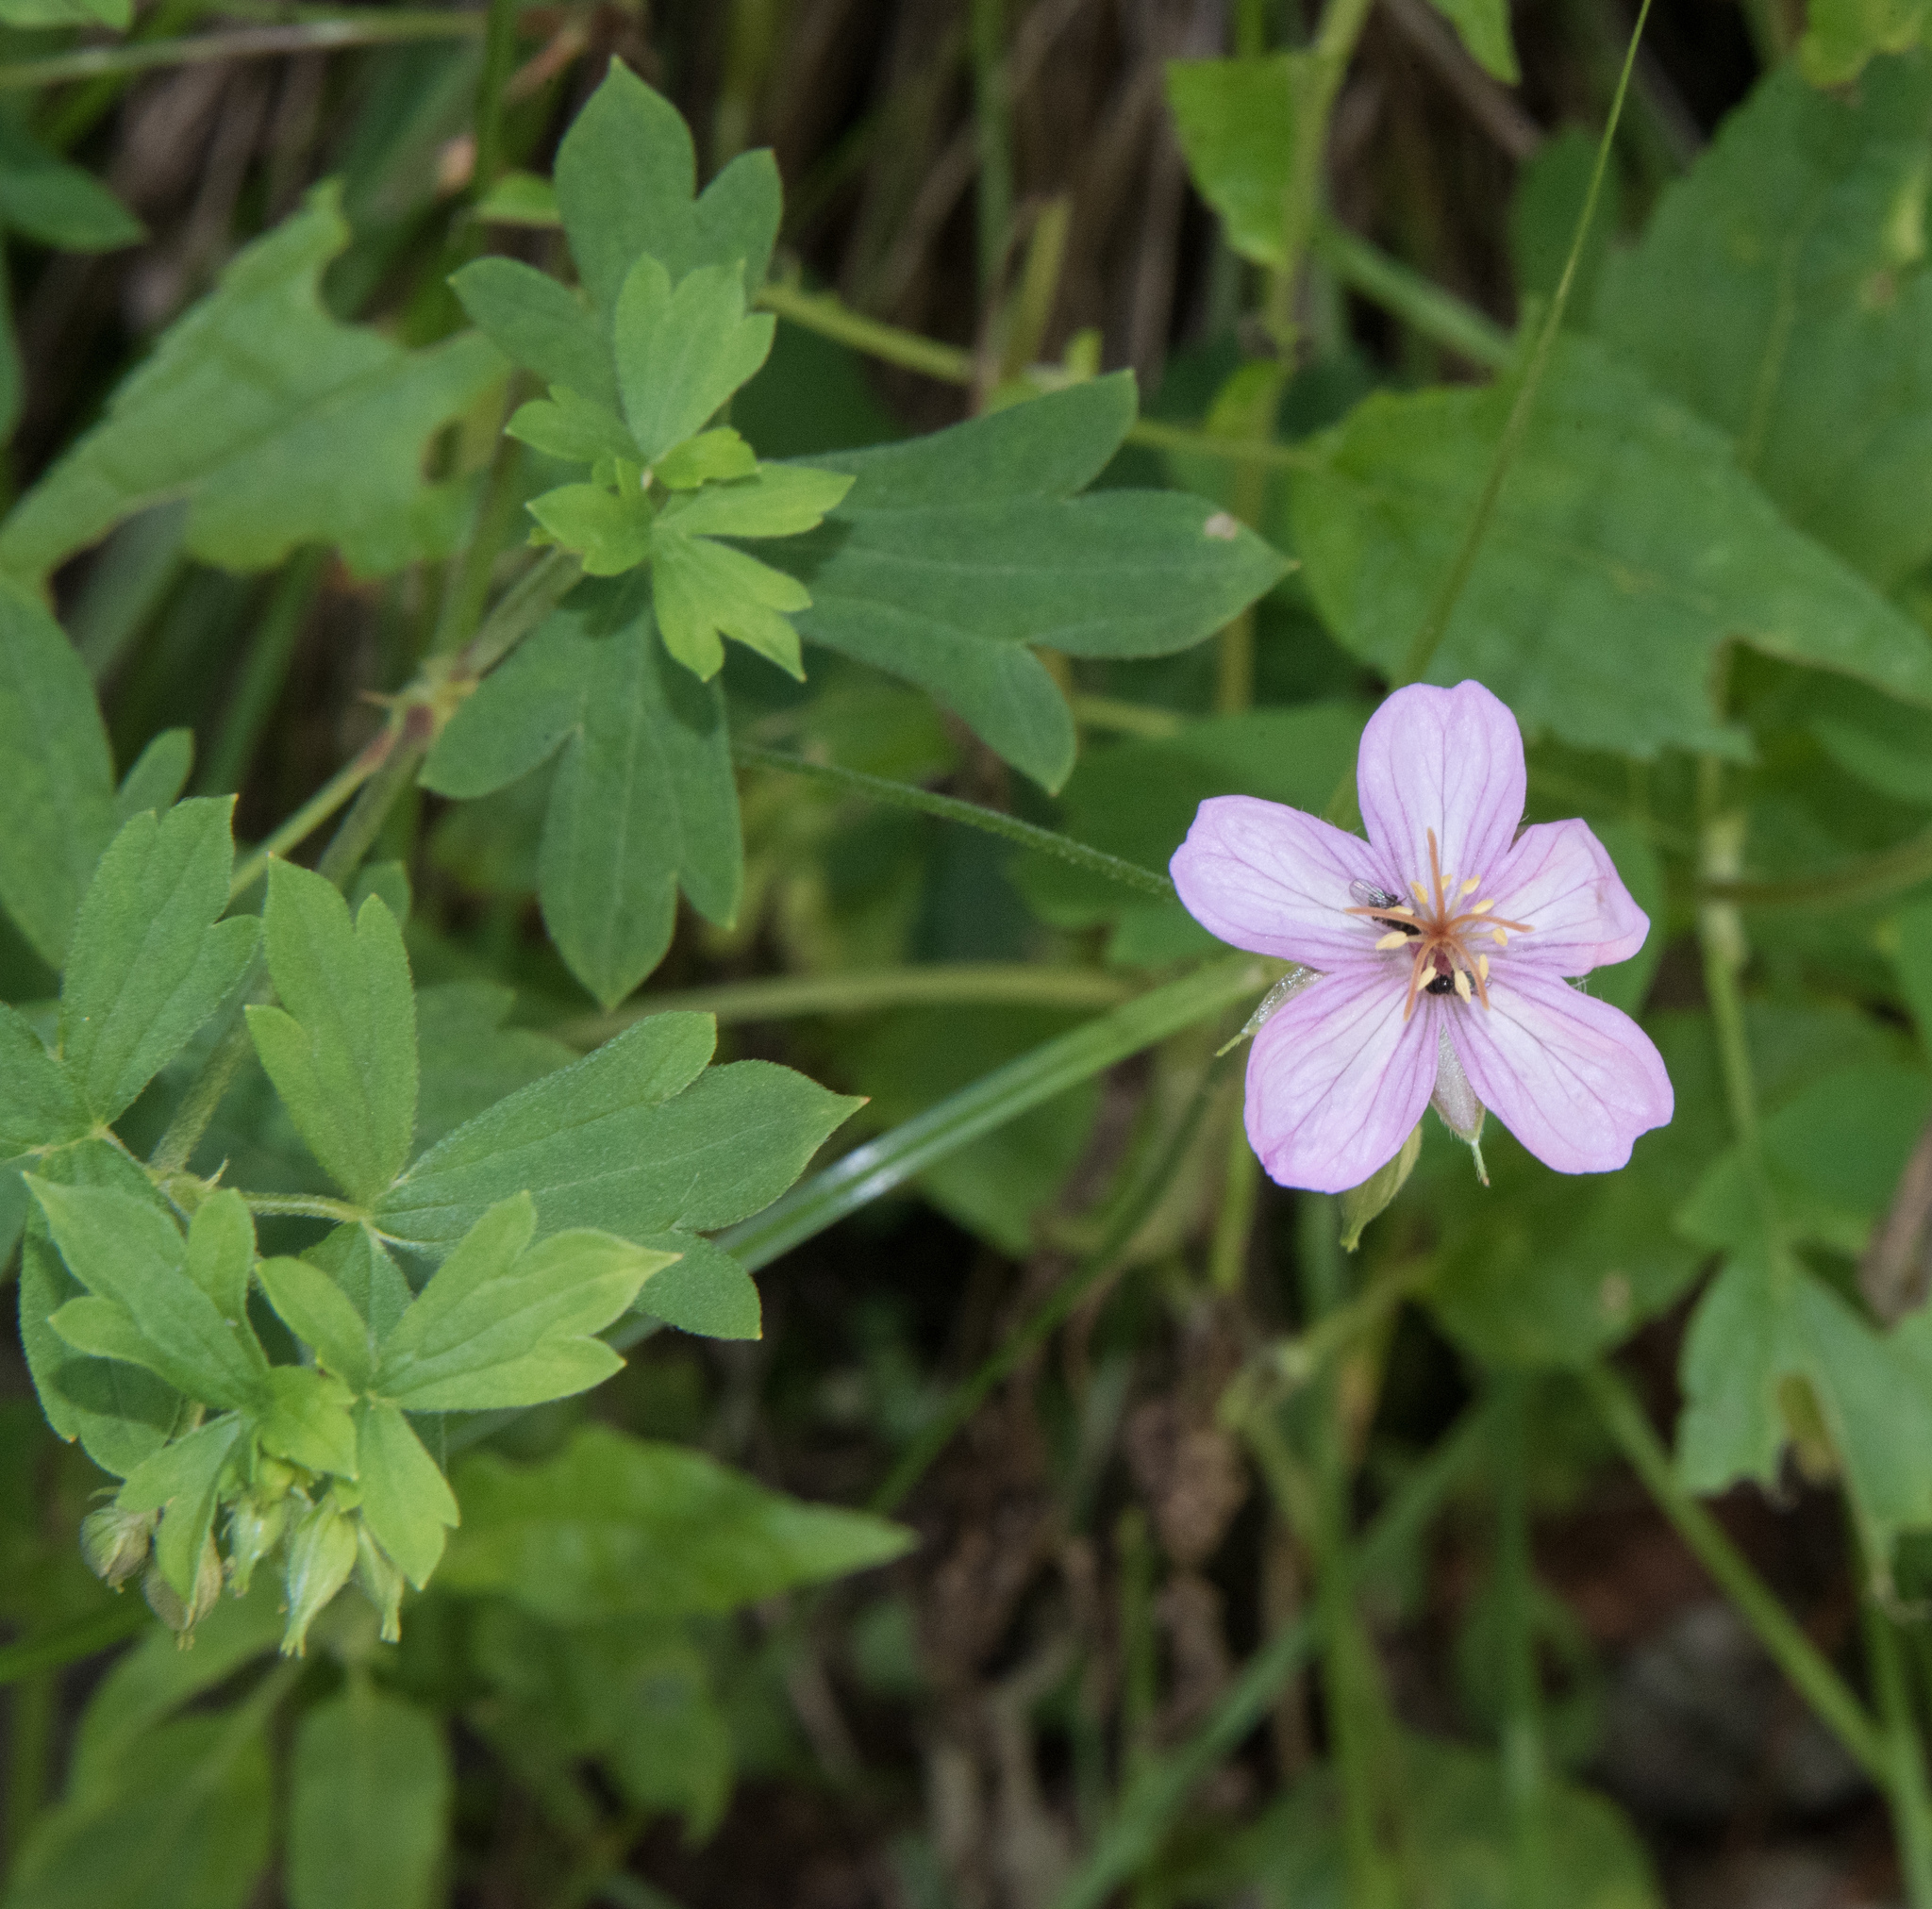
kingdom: Plantae
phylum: Tracheophyta
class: Magnoliopsida
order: Geraniales
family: Geraniaceae
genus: Geranium
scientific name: Geranium caespitosum
